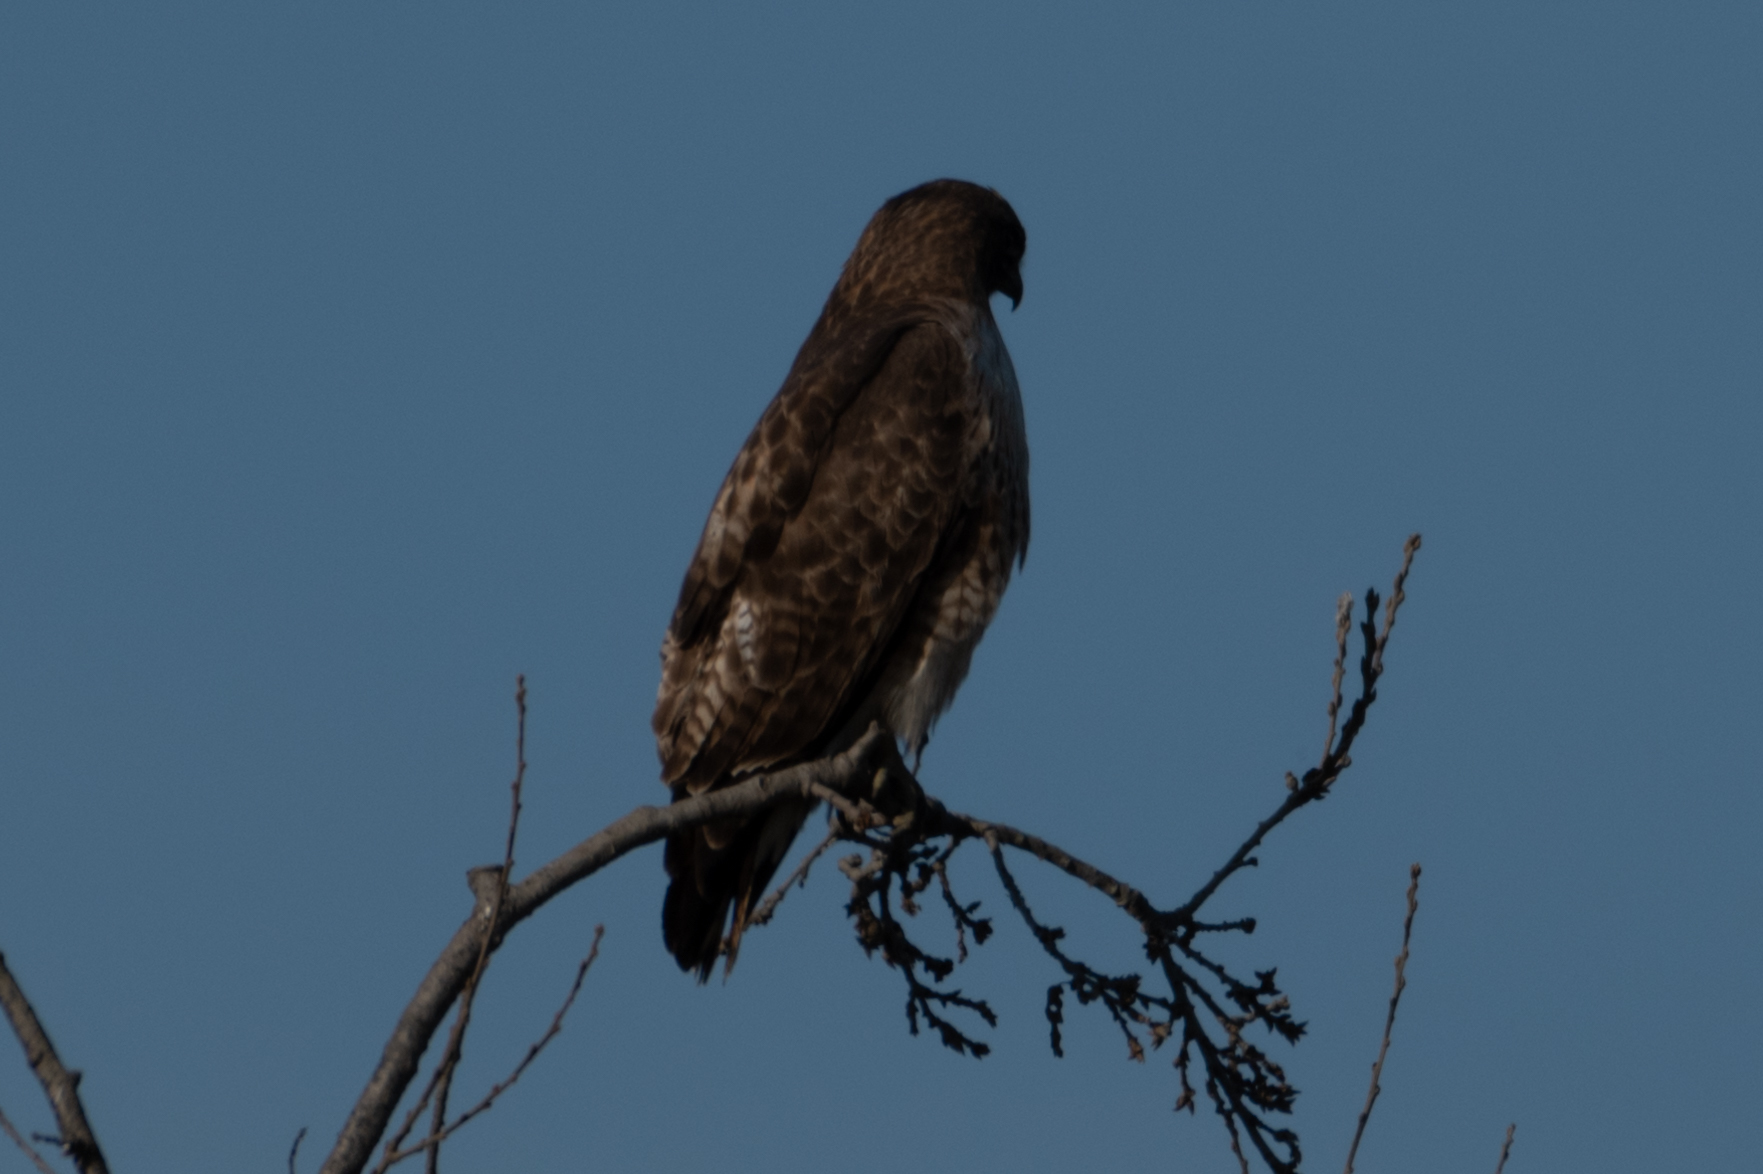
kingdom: Animalia
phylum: Chordata
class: Aves
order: Accipitriformes
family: Accipitridae
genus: Buteo
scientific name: Buteo jamaicensis
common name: Red-tailed hawk
